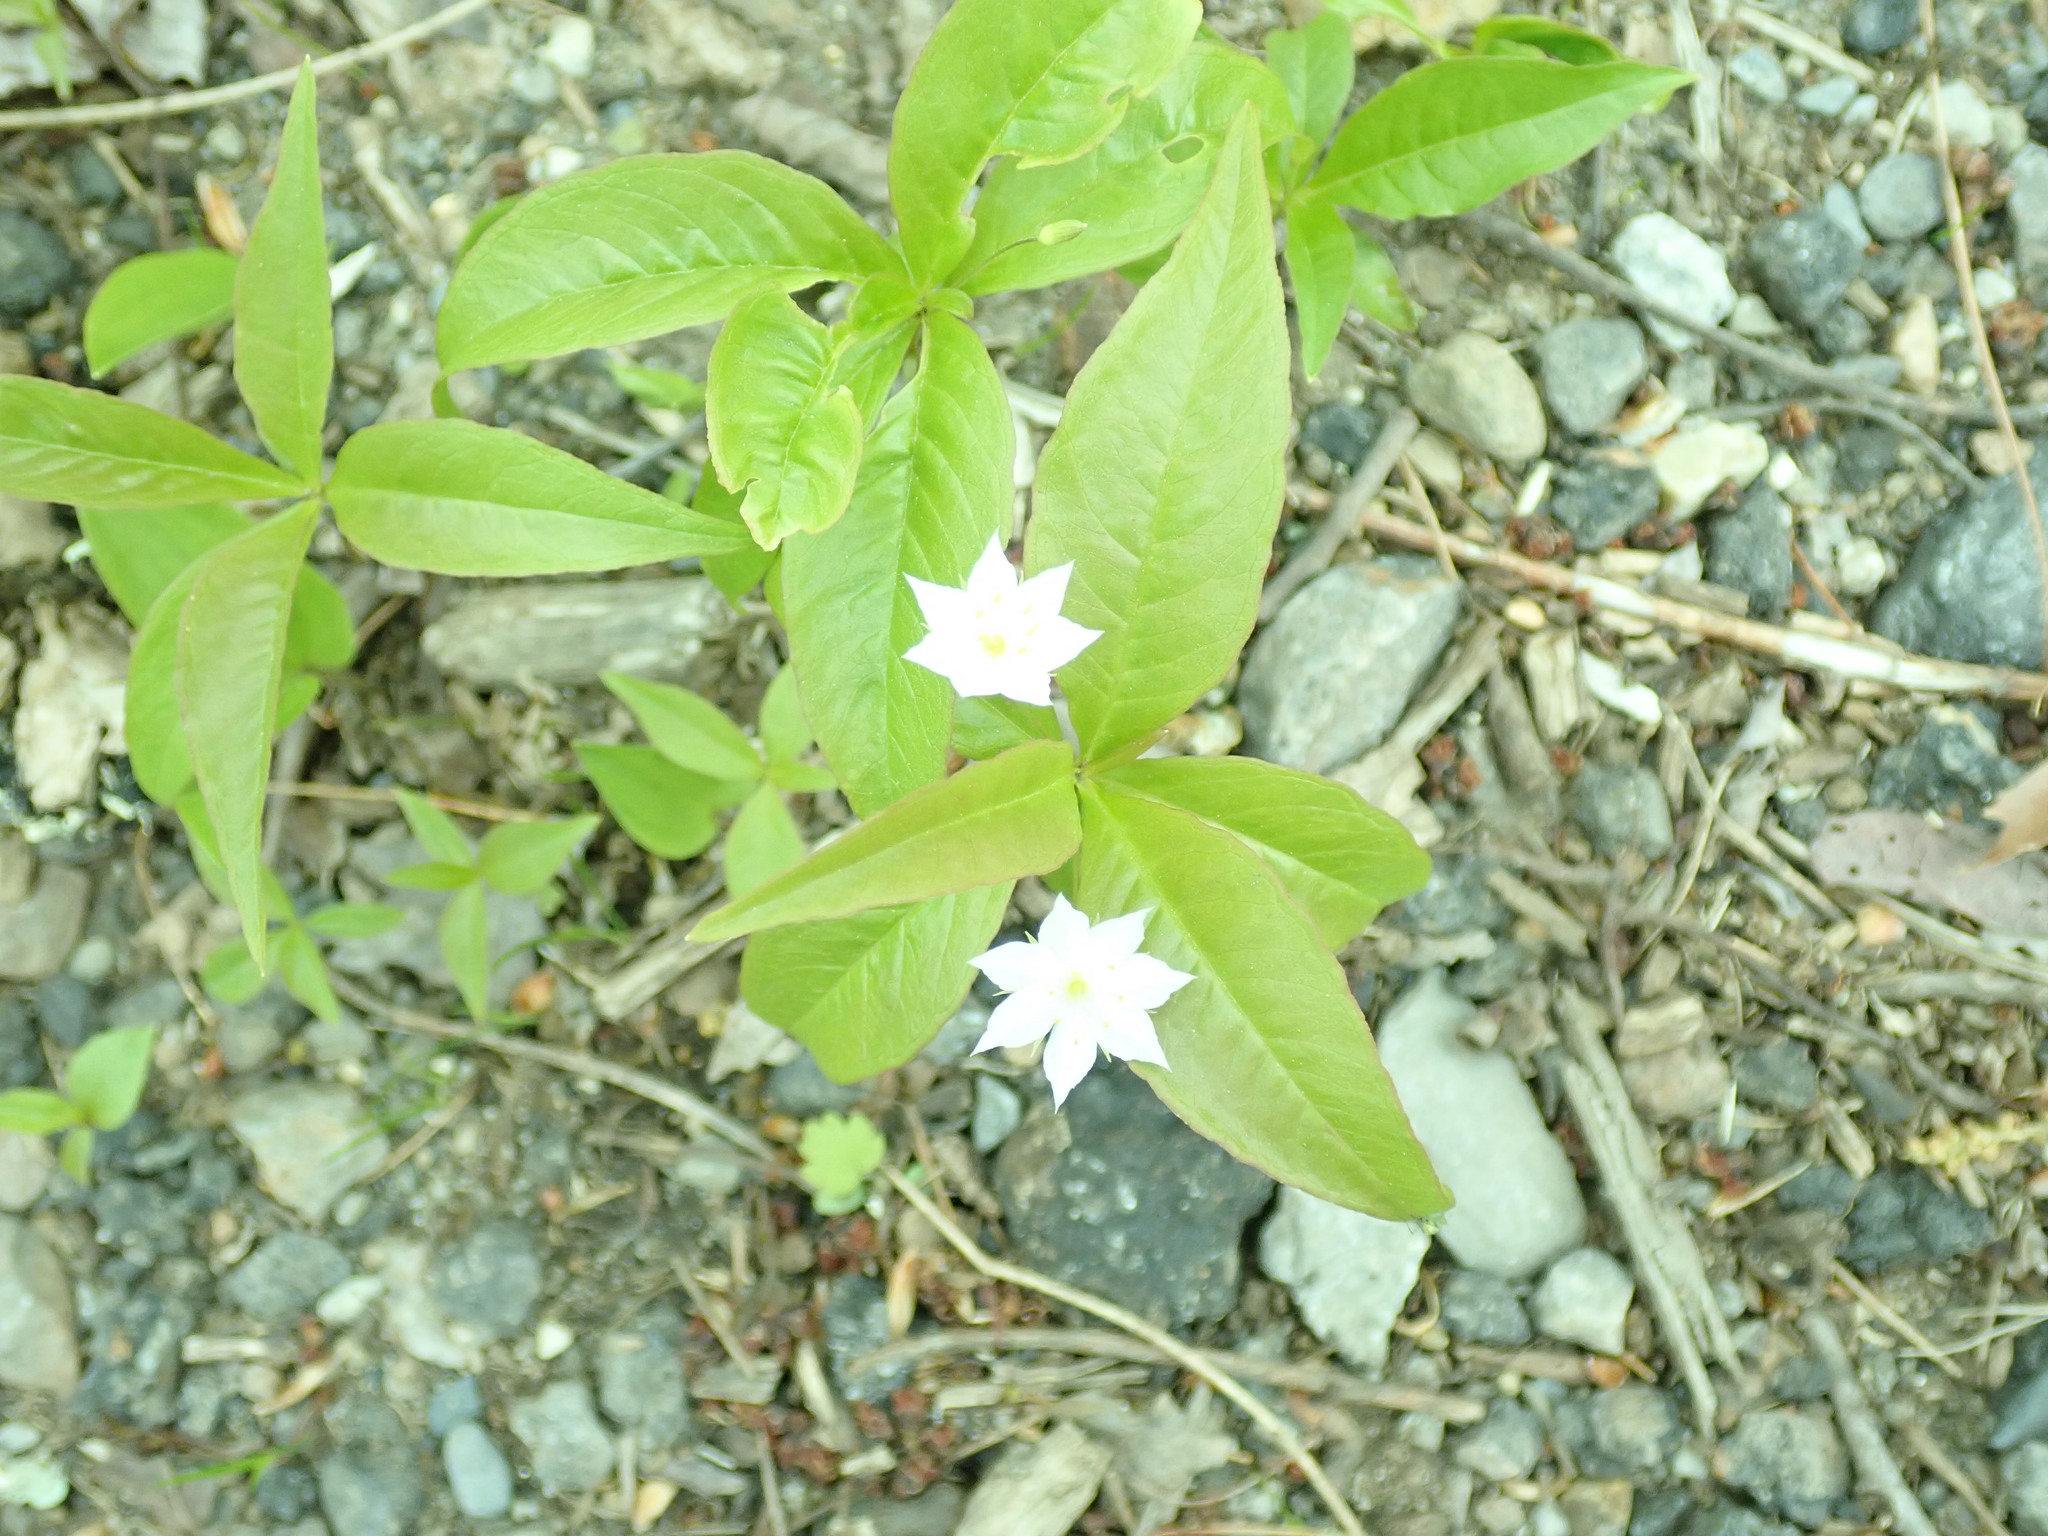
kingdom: Plantae
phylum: Tracheophyta
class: Magnoliopsida
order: Ericales
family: Primulaceae
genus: Lysimachia
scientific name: Lysimachia borealis
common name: American starflower
